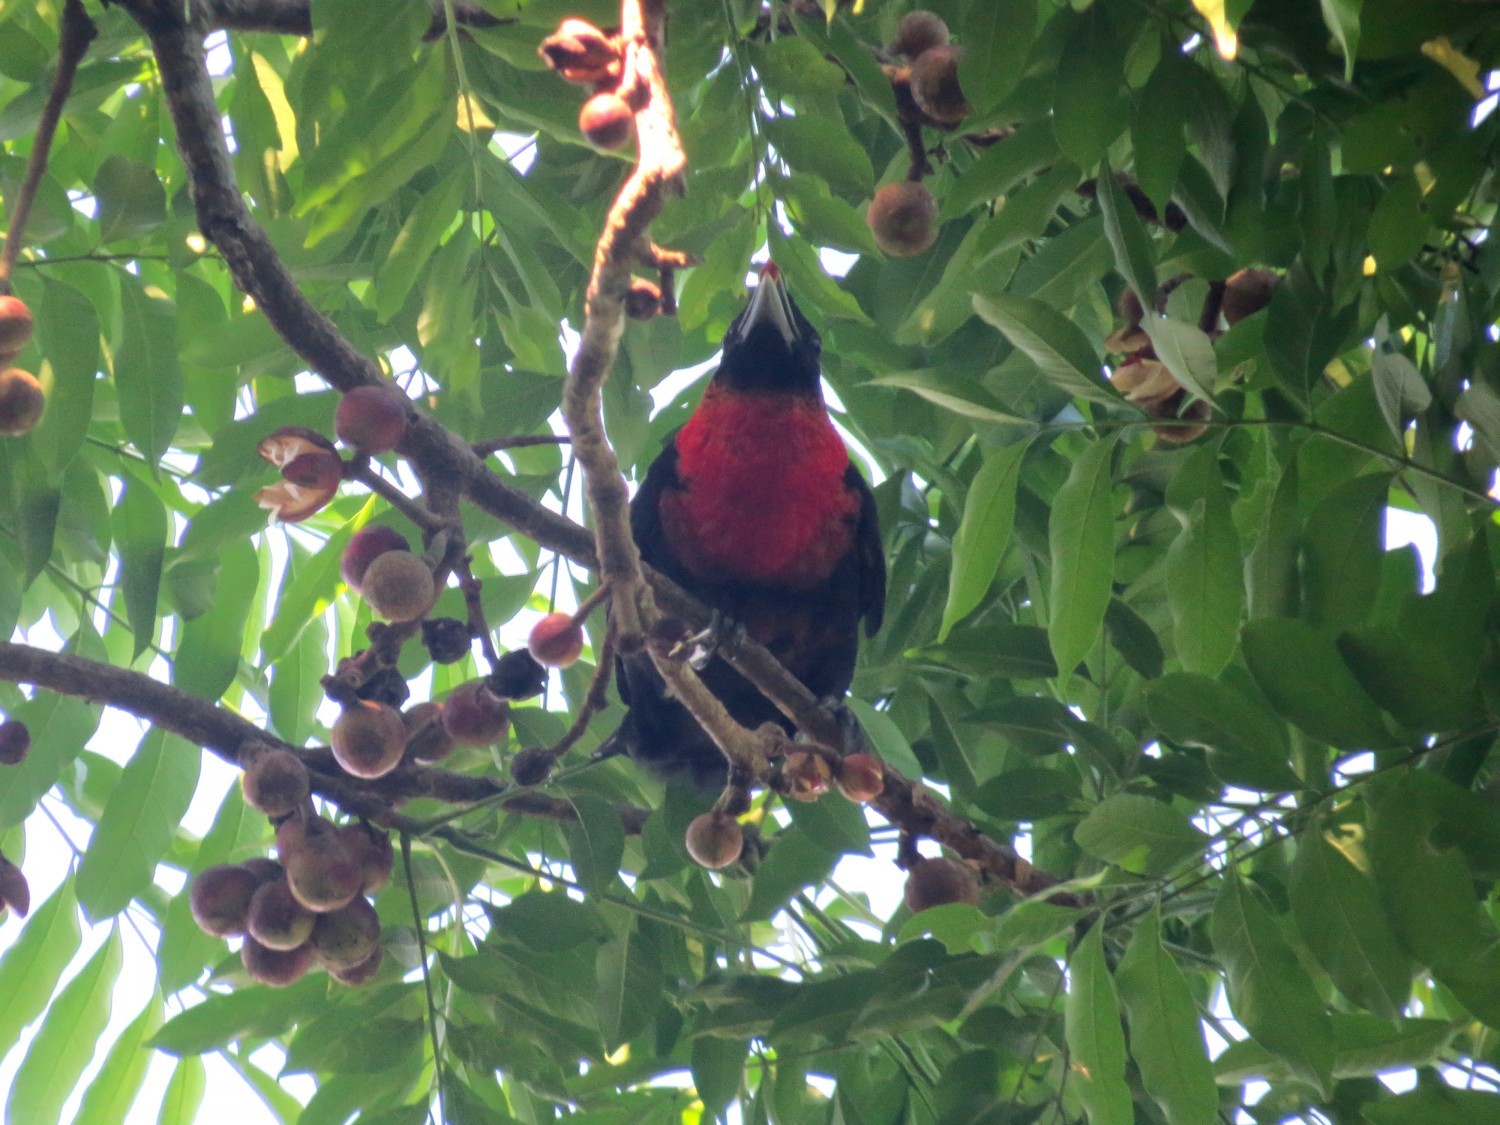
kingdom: Animalia
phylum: Chordata
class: Aves
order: Passeriformes
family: Cotingidae
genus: Pyroderus
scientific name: Pyroderus scutatus
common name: Red-ruffed fruitcrow
